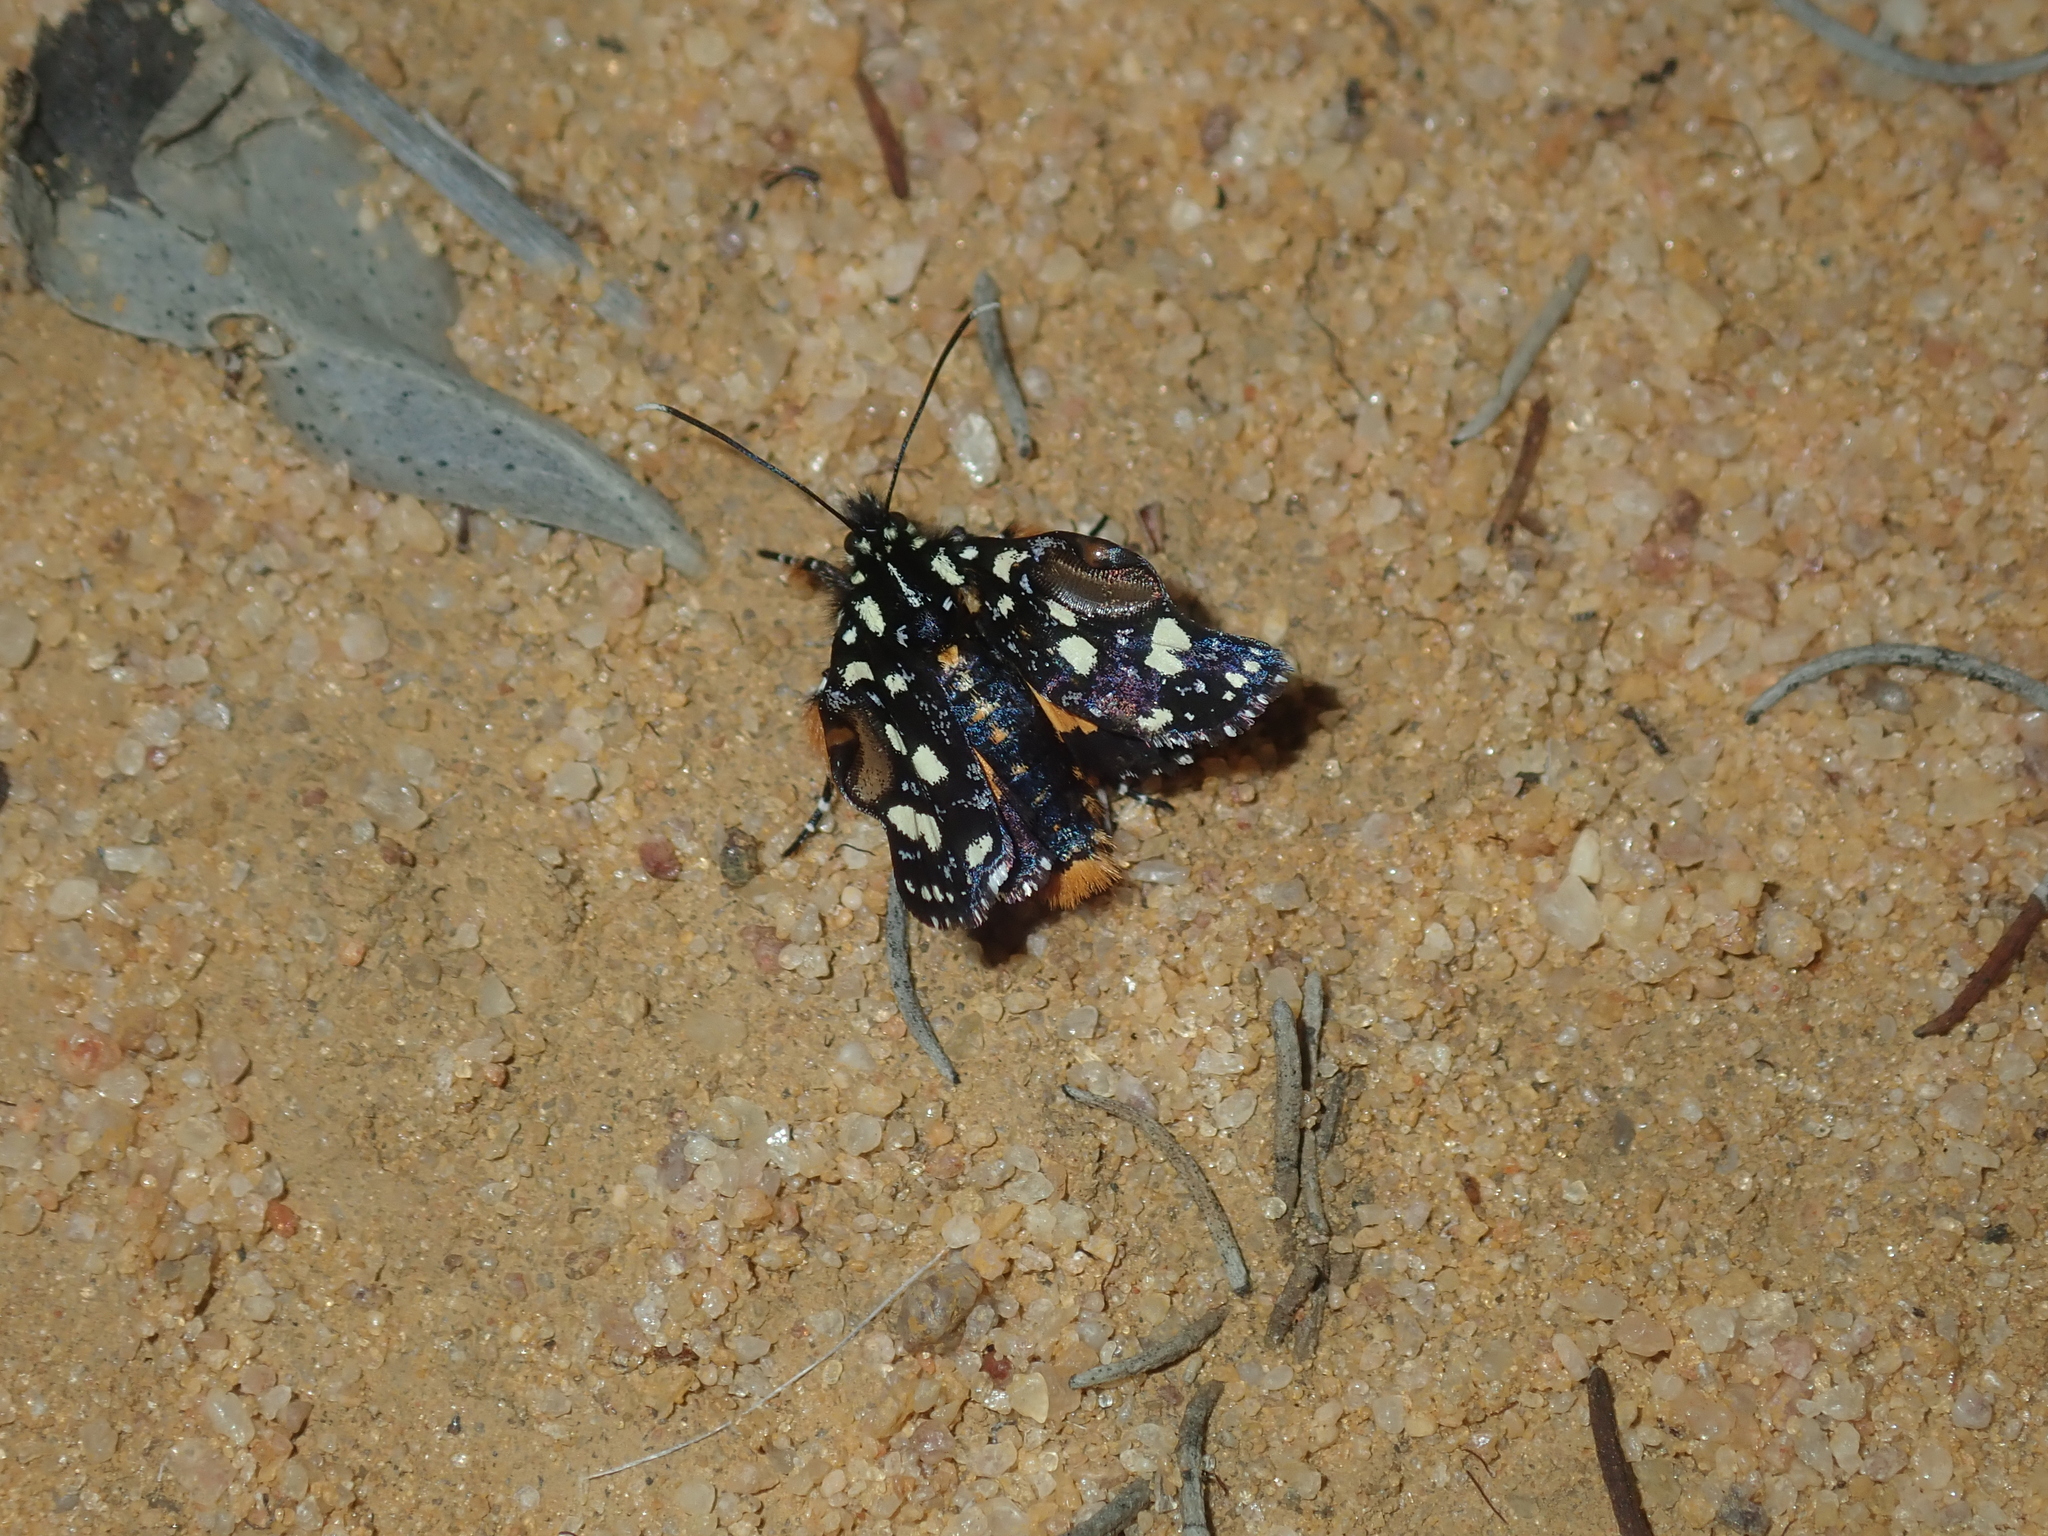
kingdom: Animalia
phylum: Arthropoda
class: Insecta
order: Lepidoptera
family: Noctuidae
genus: Hecatesia
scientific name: Hecatesia exultans
